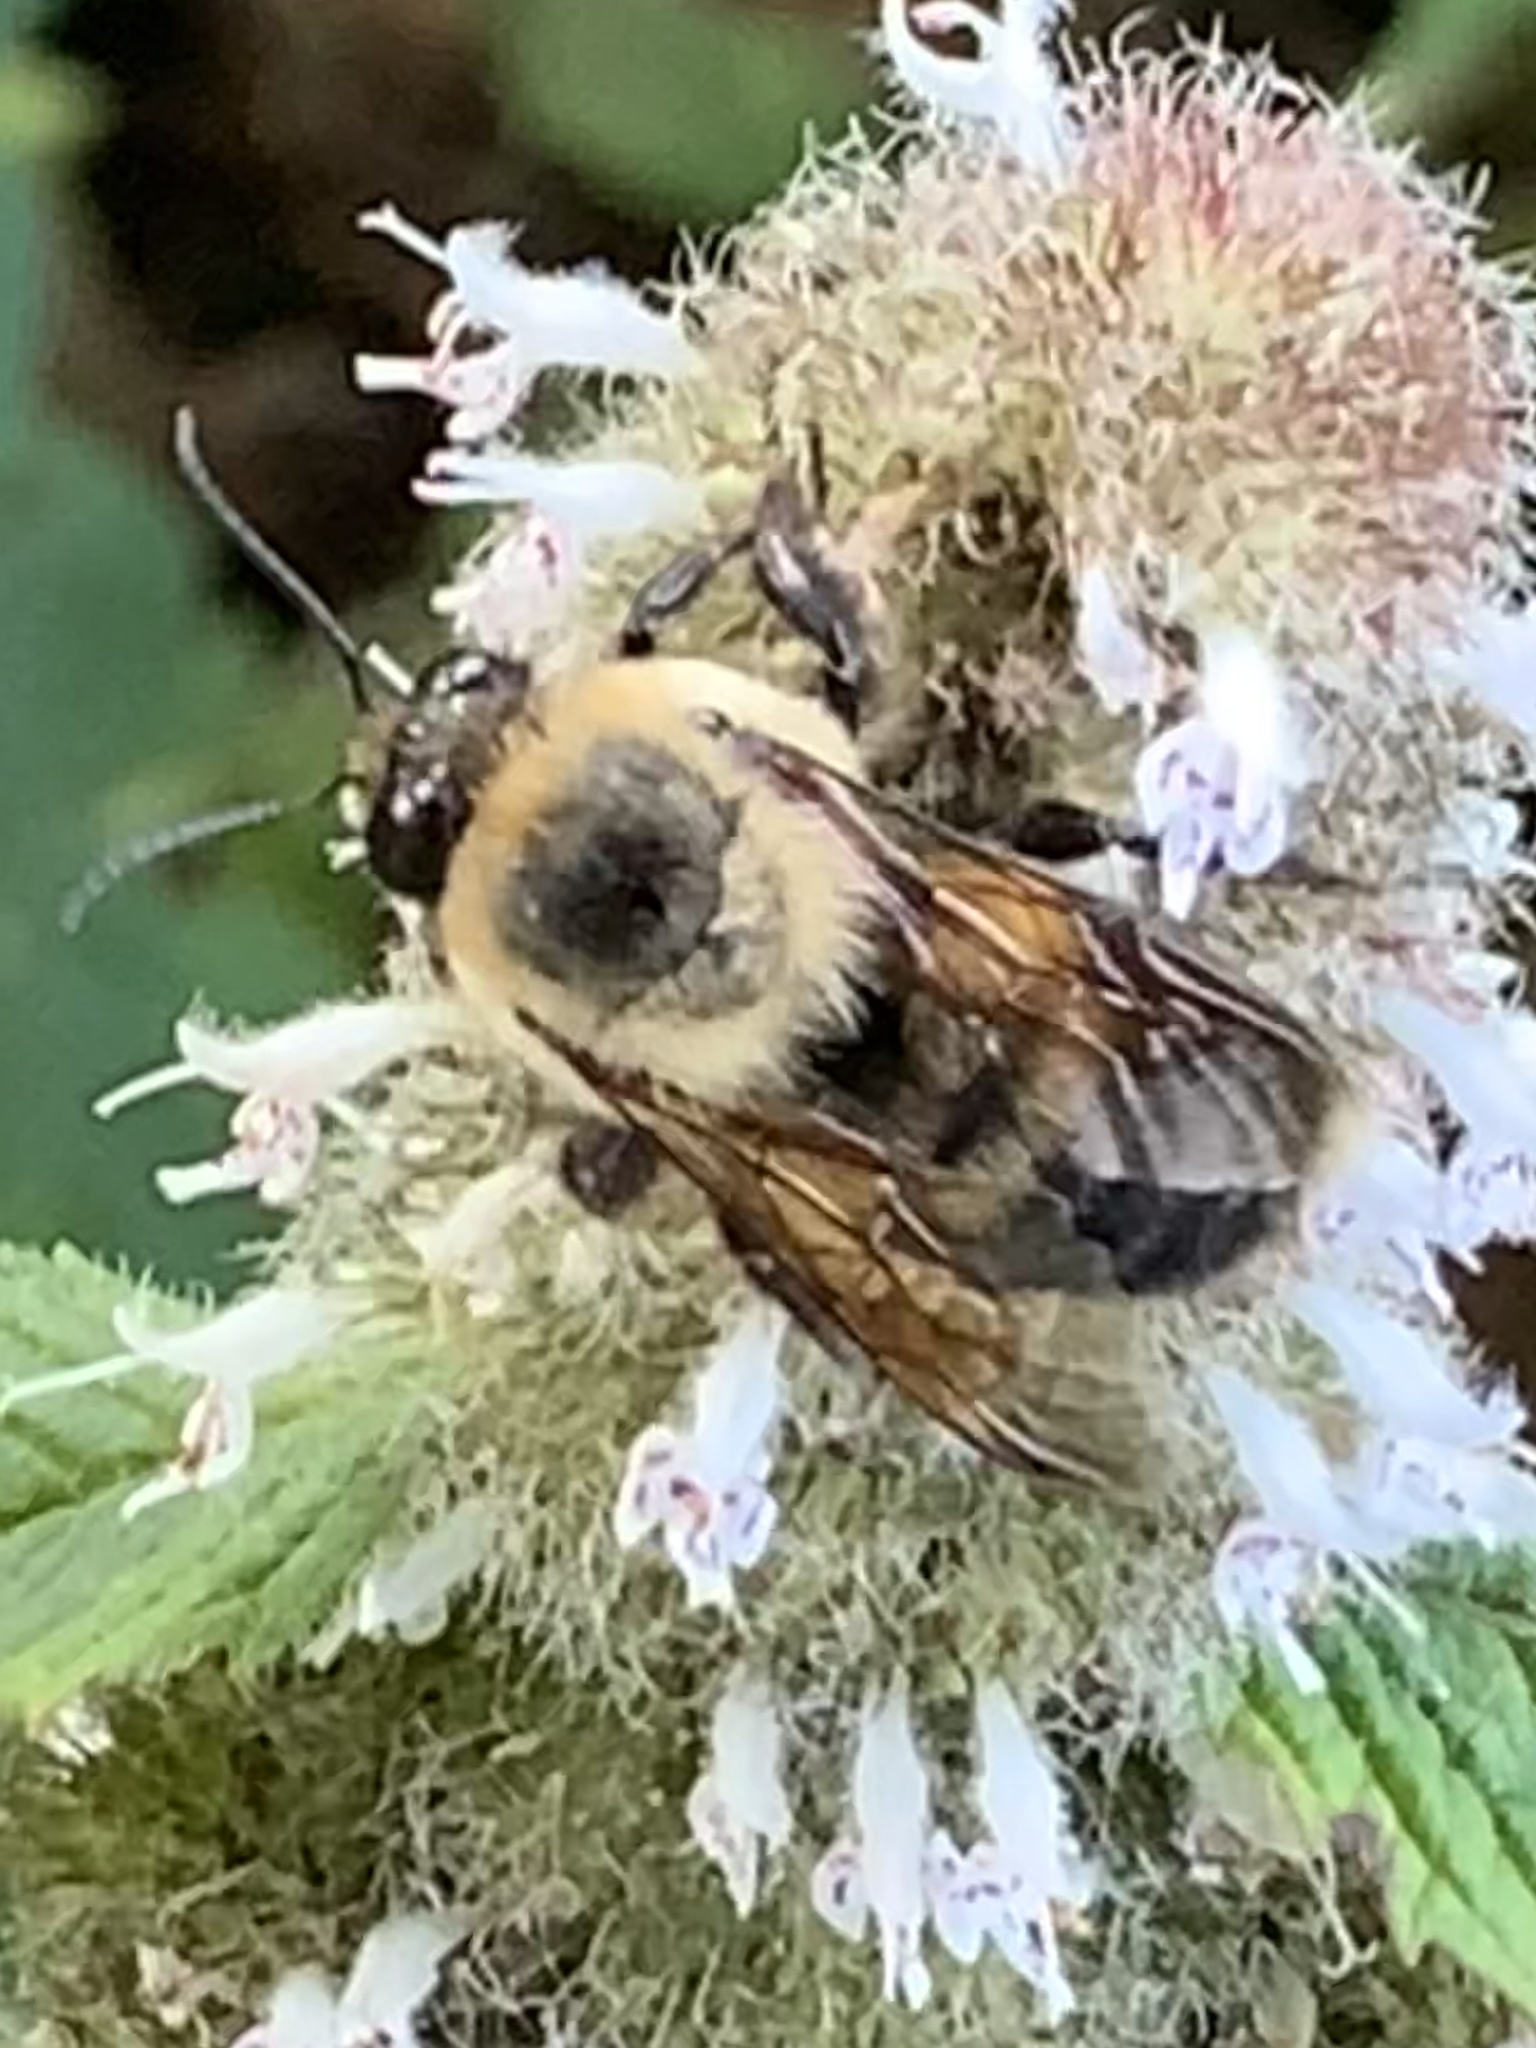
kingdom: Animalia
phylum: Arthropoda
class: Insecta
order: Hymenoptera
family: Apidae
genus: Bombus
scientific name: Bombus griseocollis
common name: Brown-belted bumble bee
